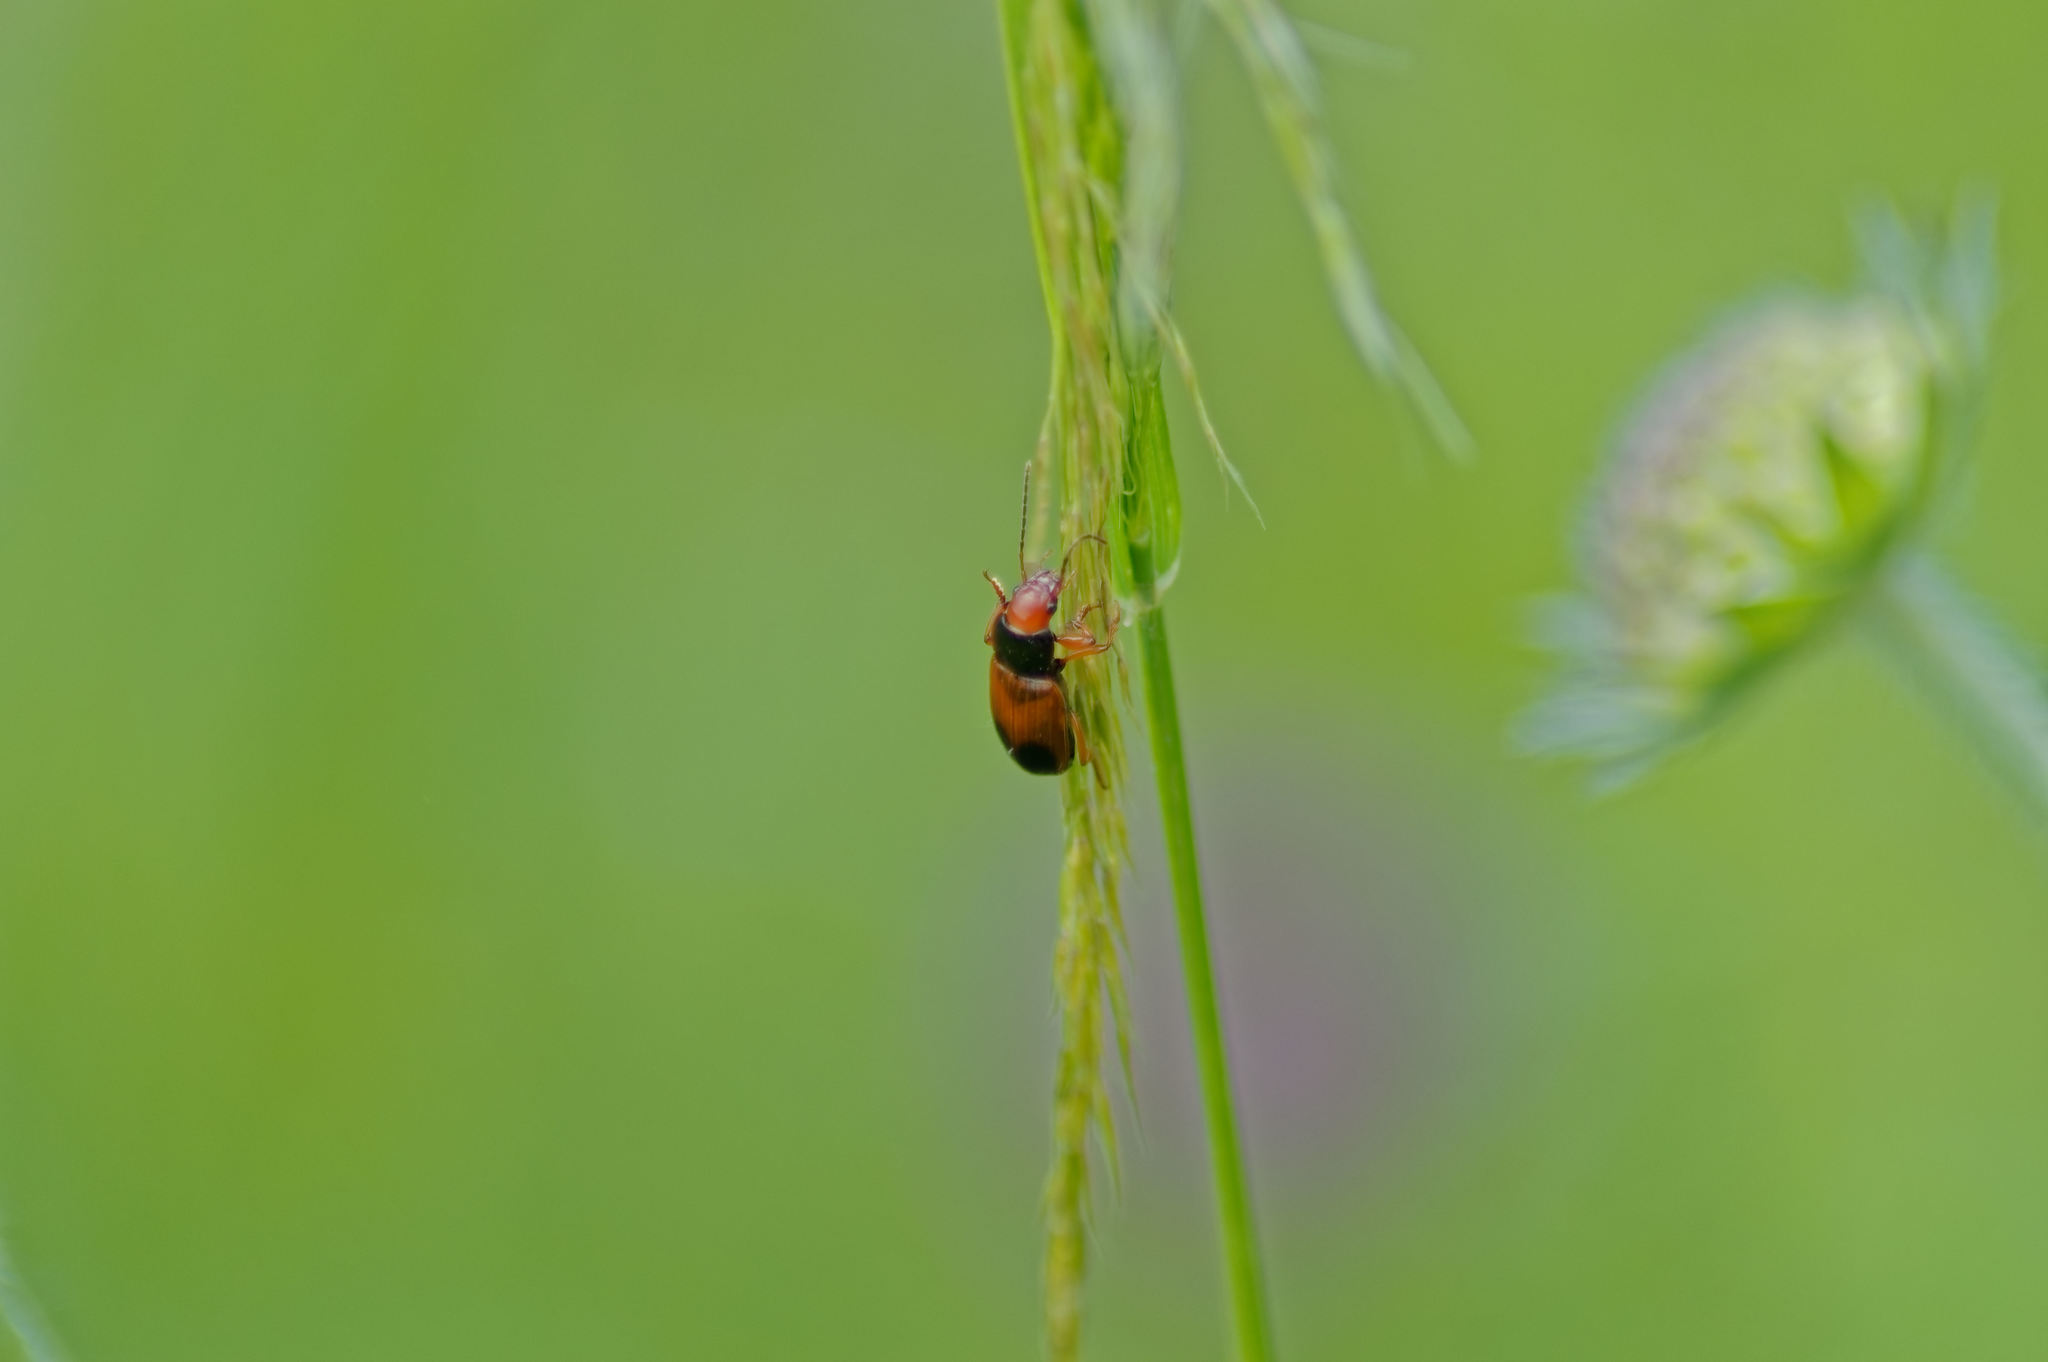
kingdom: Animalia
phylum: Arthropoda
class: Insecta
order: Coleoptera
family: Carabidae
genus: Diachromus
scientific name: Diachromus germanus
